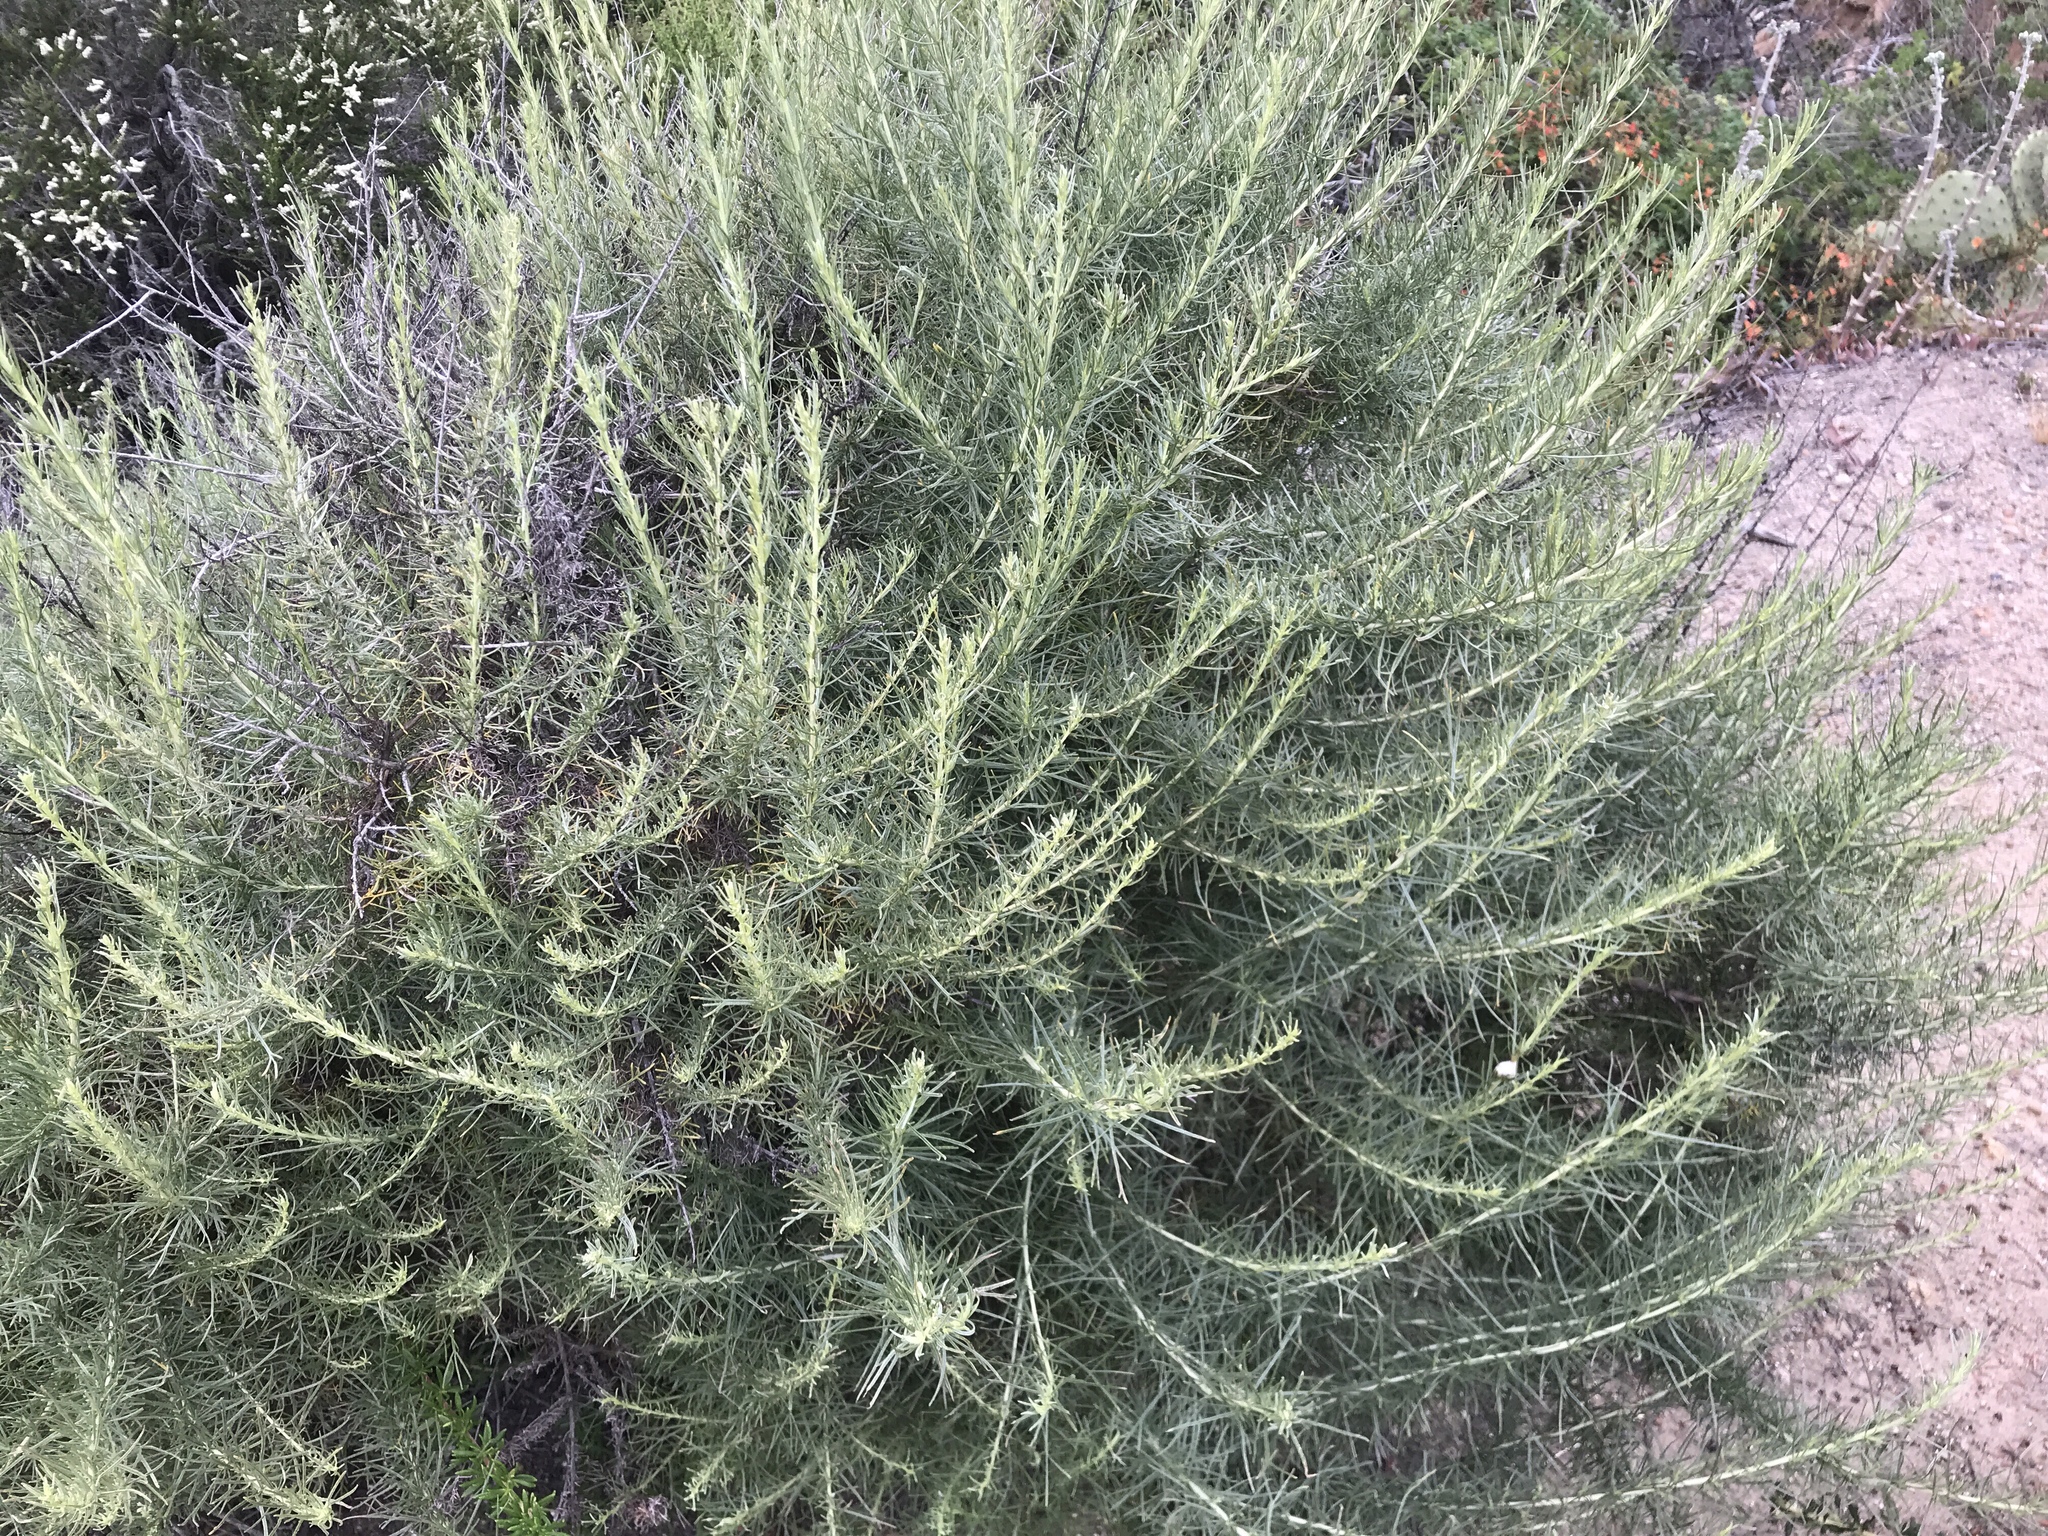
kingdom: Plantae
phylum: Tracheophyta
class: Magnoliopsida
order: Asterales
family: Asteraceae
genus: Artemisia
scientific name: Artemisia californica
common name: California sagebrush
